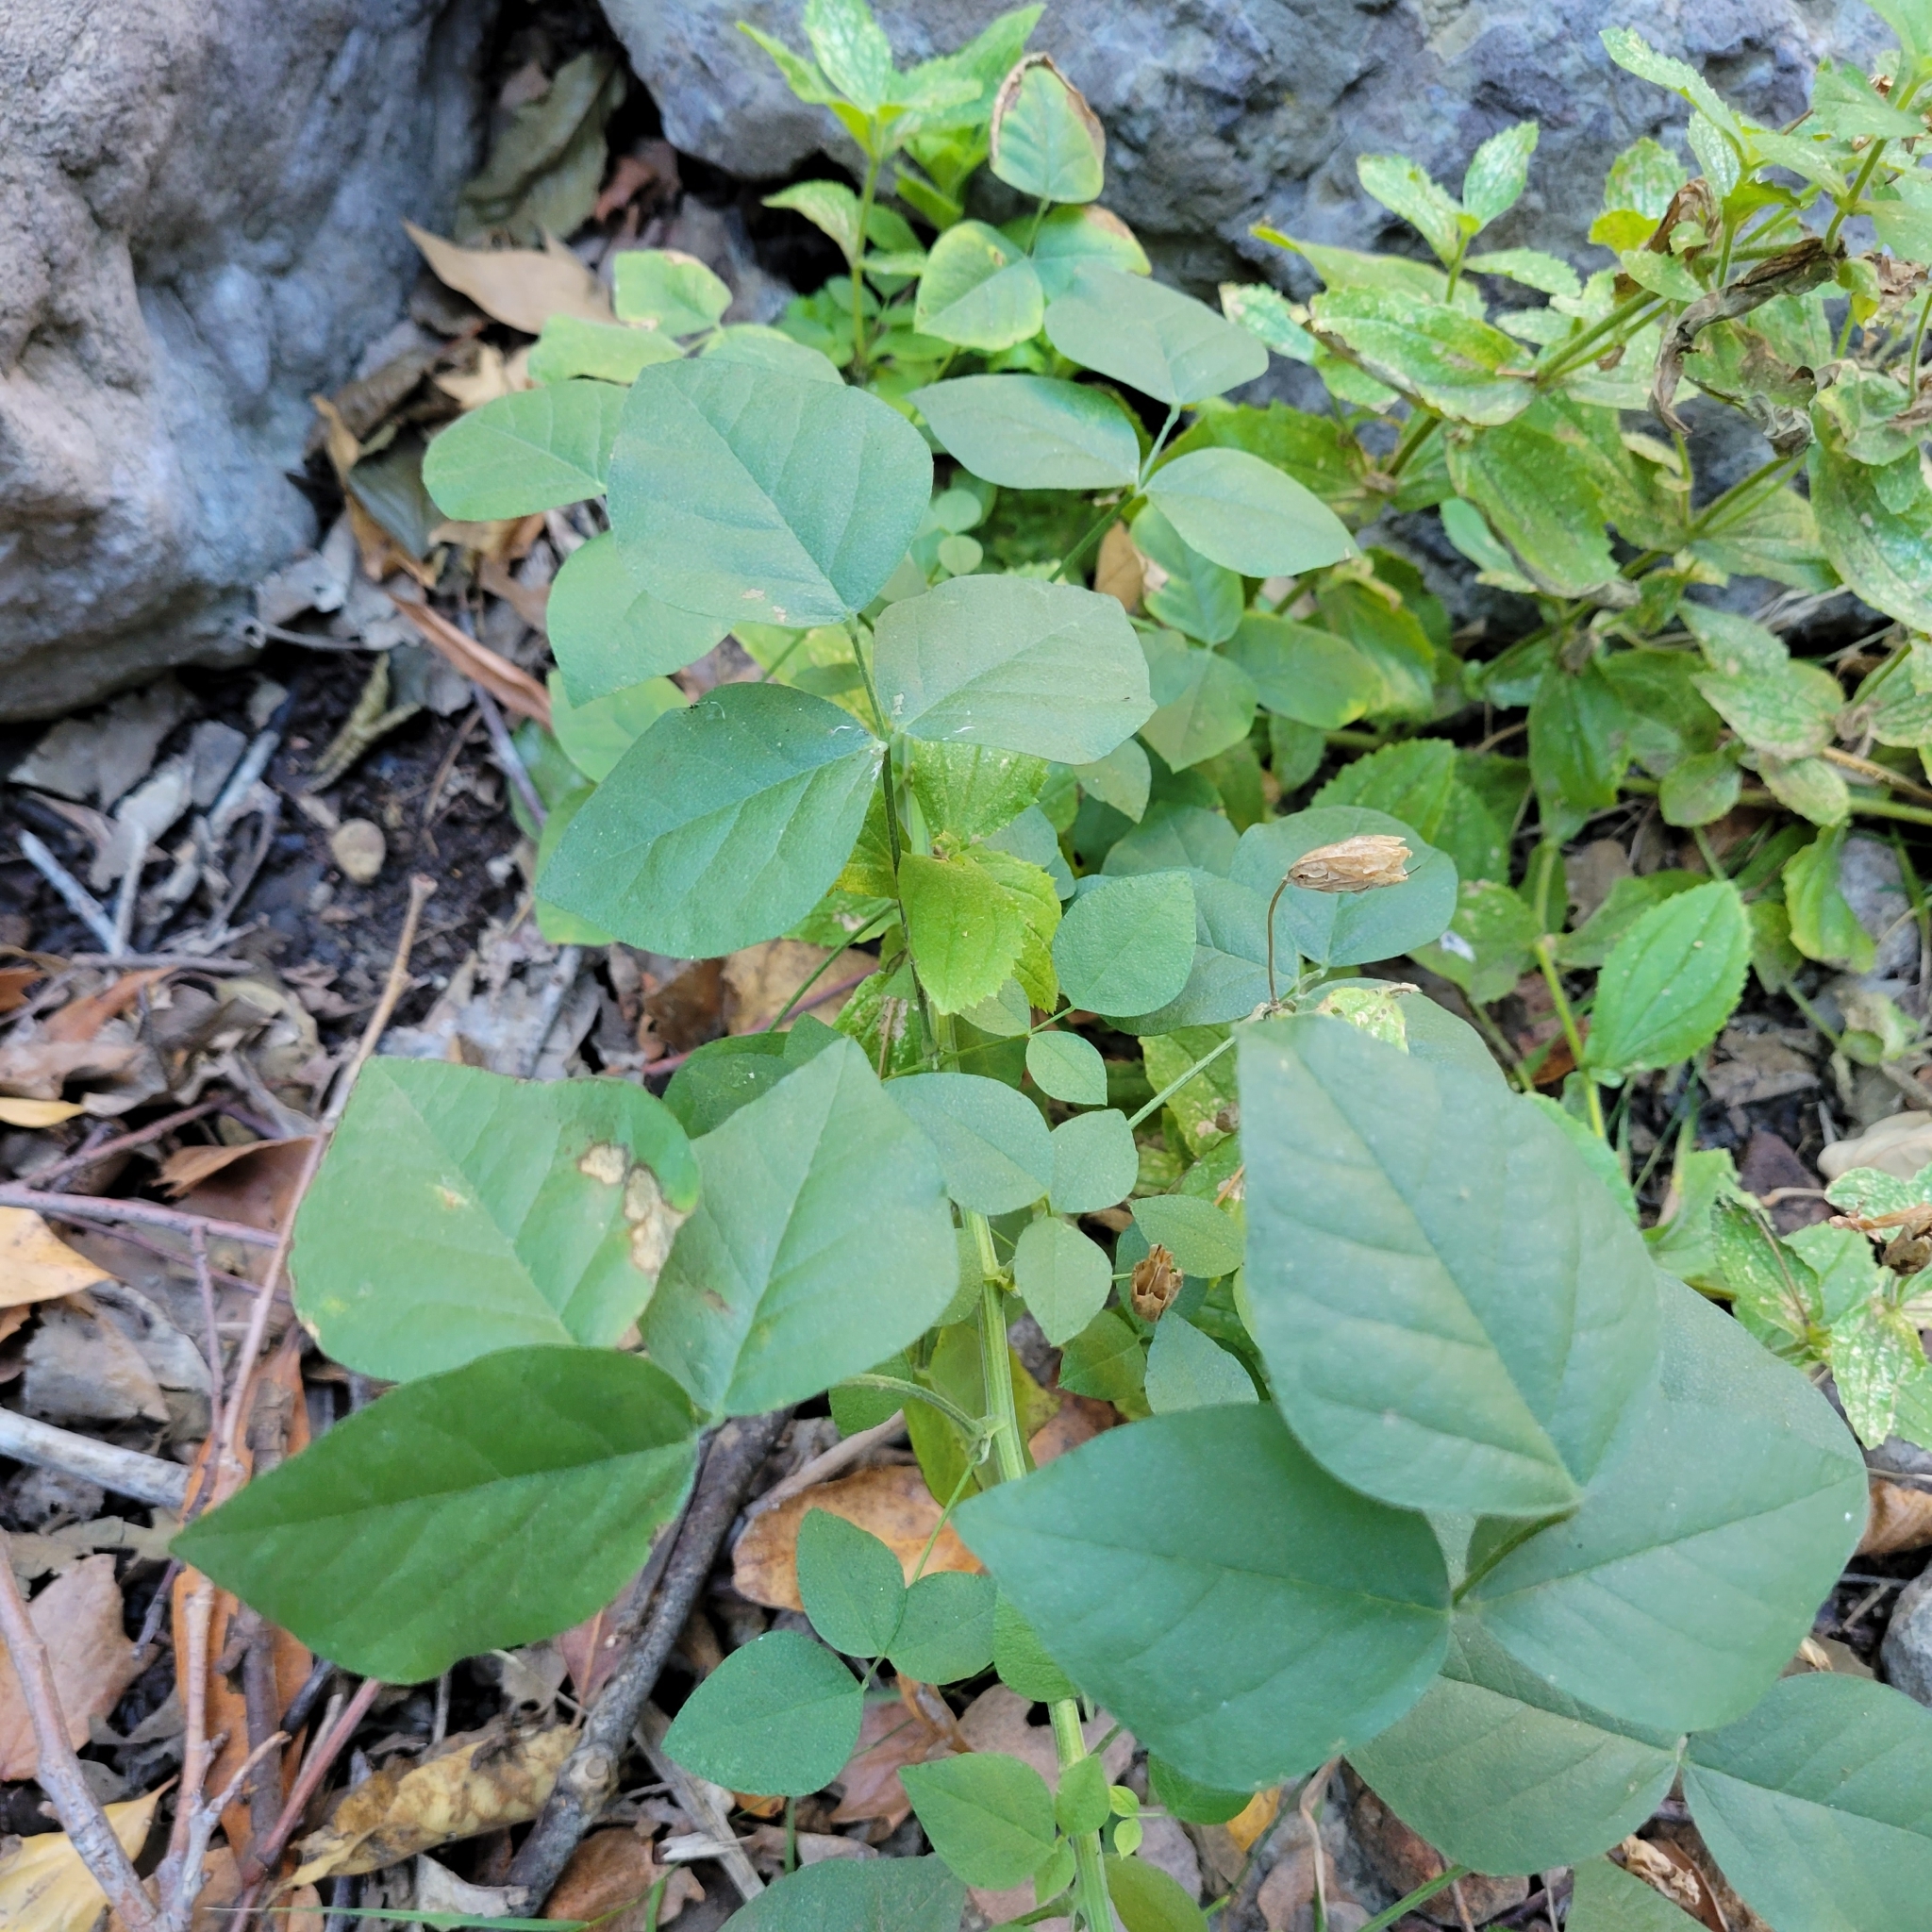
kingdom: Plantae
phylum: Tracheophyta
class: Magnoliopsida
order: Fabales
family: Fabaceae
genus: Hoita
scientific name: Hoita macrostachya
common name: Leatherroot
